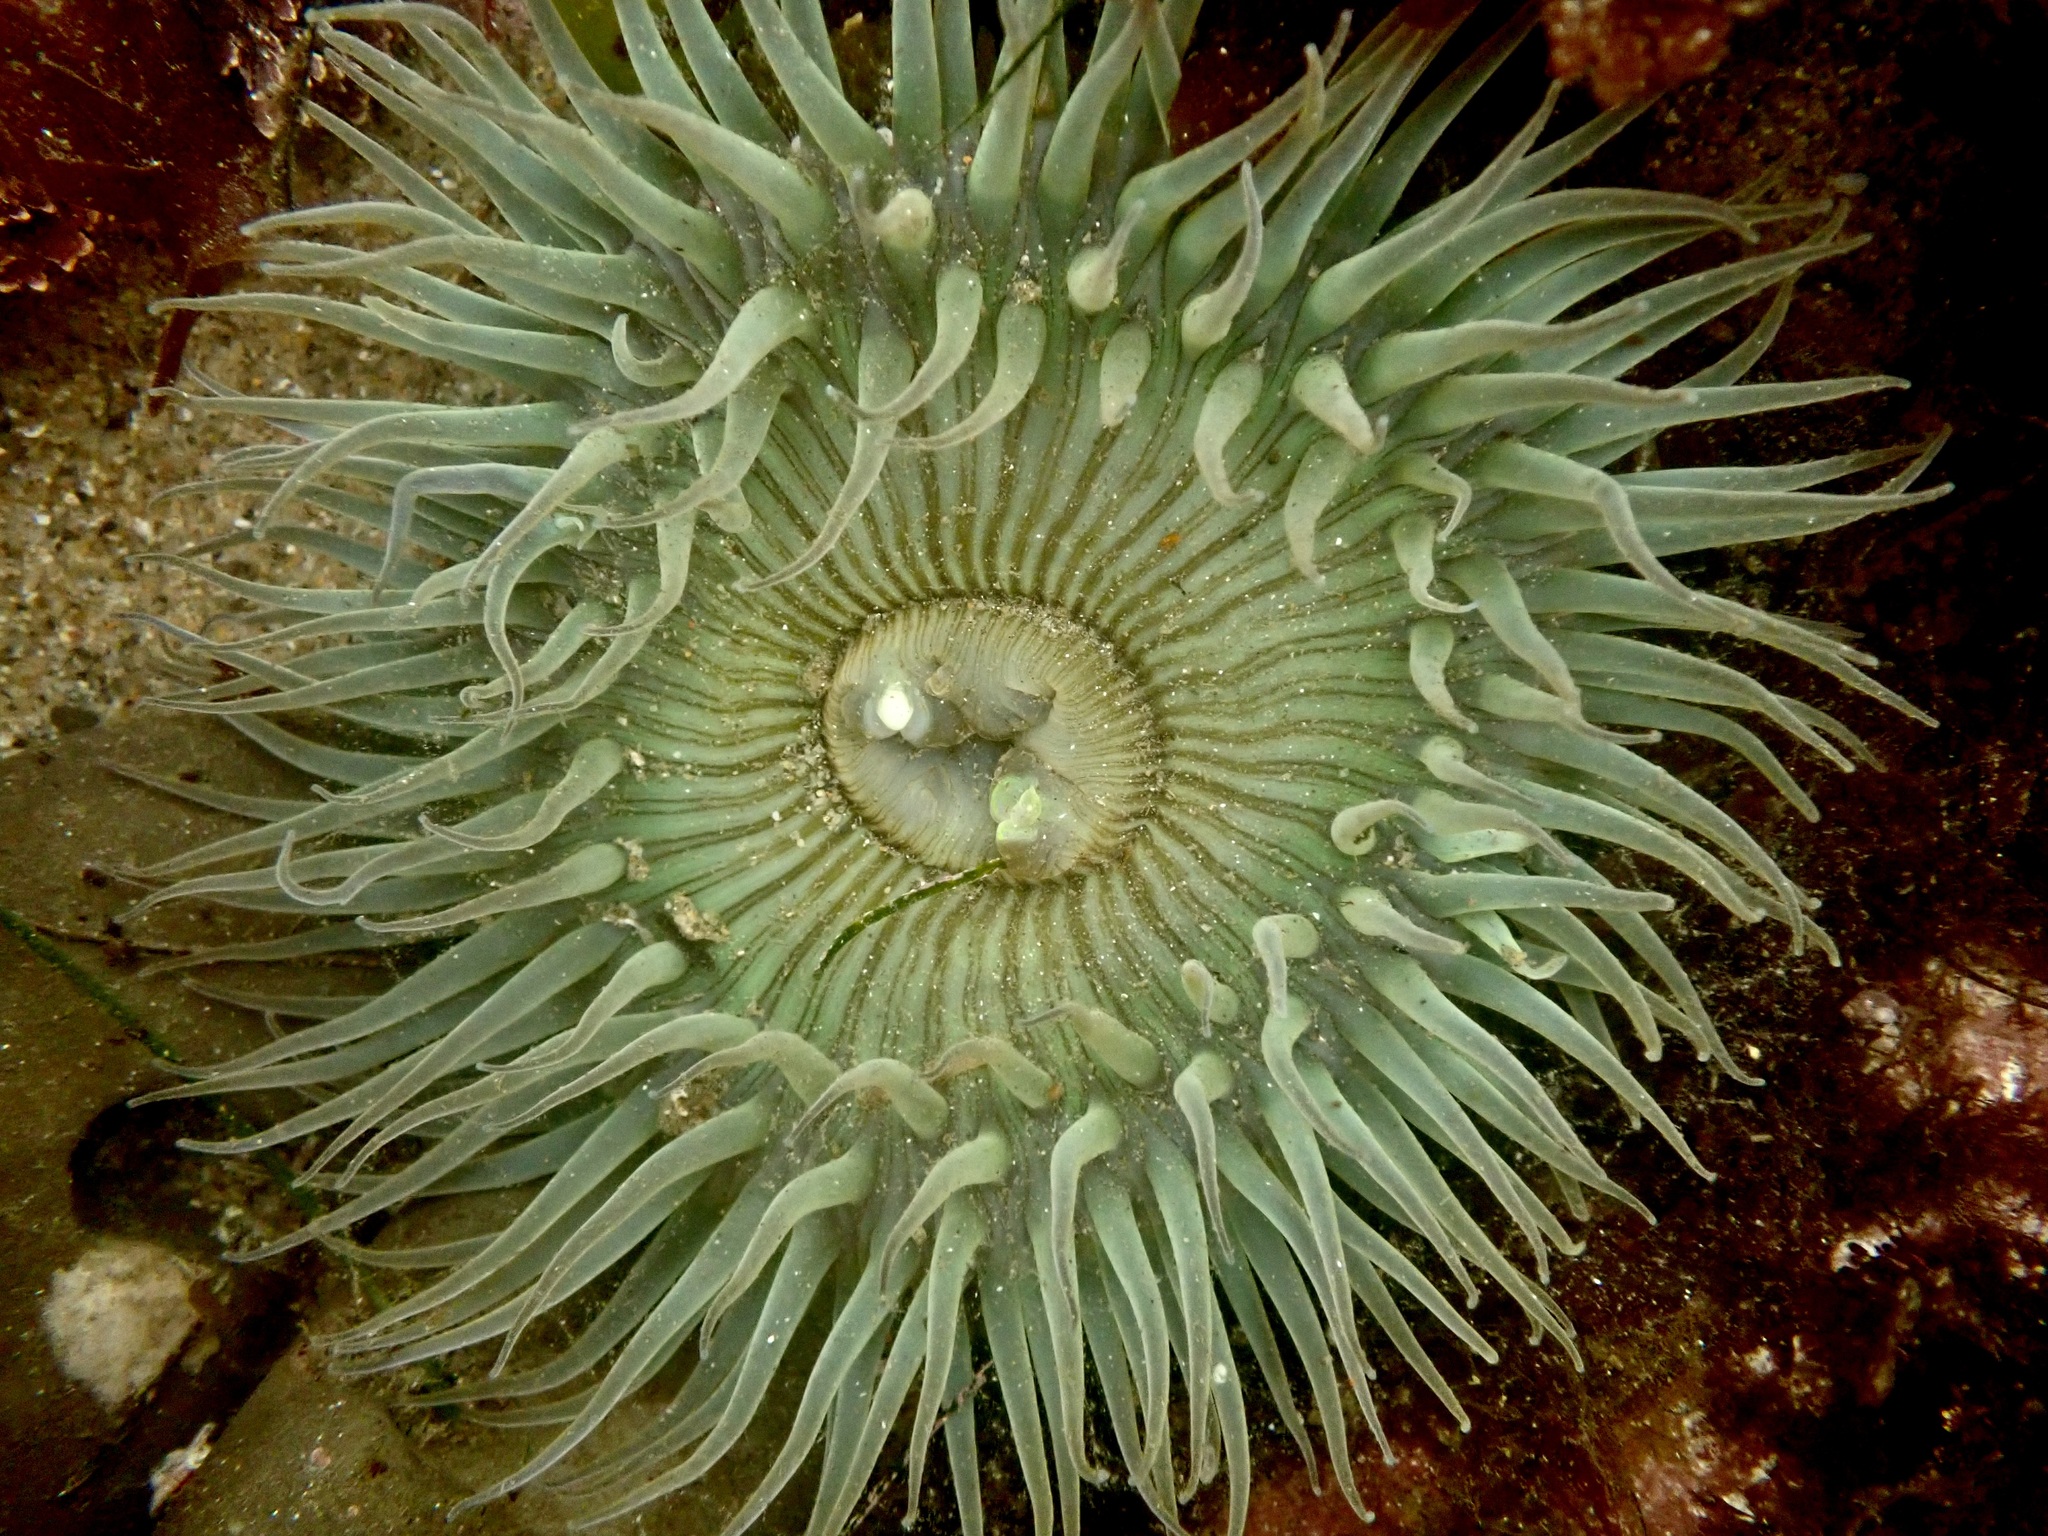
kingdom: Animalia
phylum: Cnidaria
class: Anthozoa
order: Actiniaria
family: Actiniidae
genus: Anthopleura
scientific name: Anthopleura sola
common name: Sun anemone
